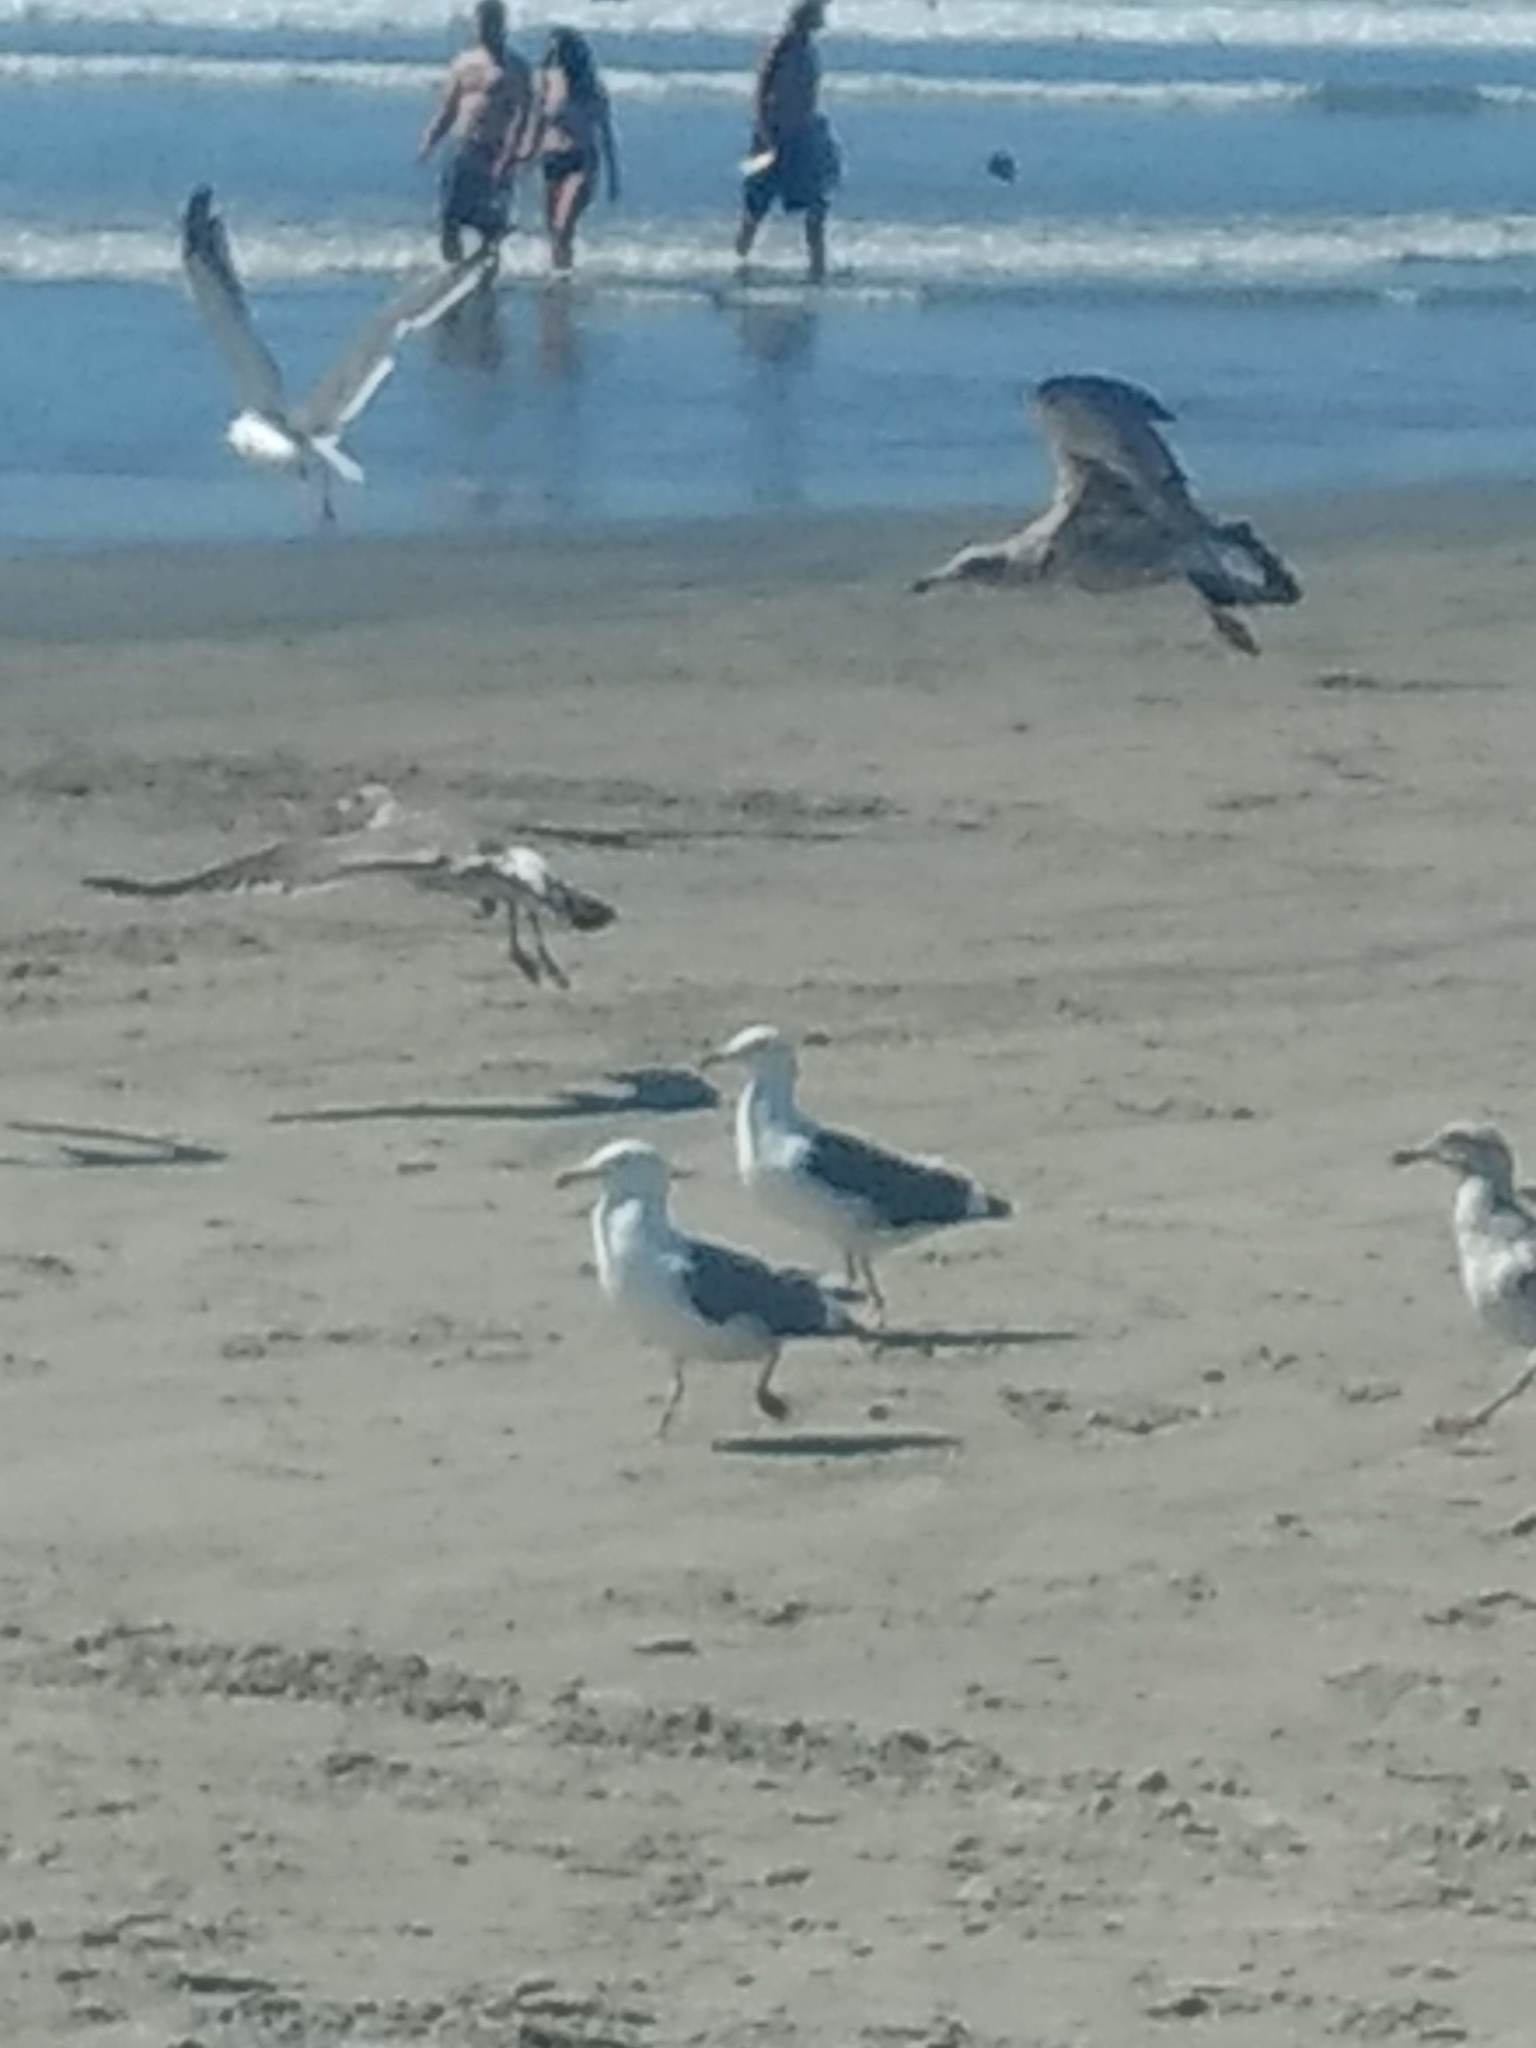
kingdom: Animalia
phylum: Chordata
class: Aves
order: Charadriiformes
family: Laridae
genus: Larus
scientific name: Larus occidentalis
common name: Western gull
